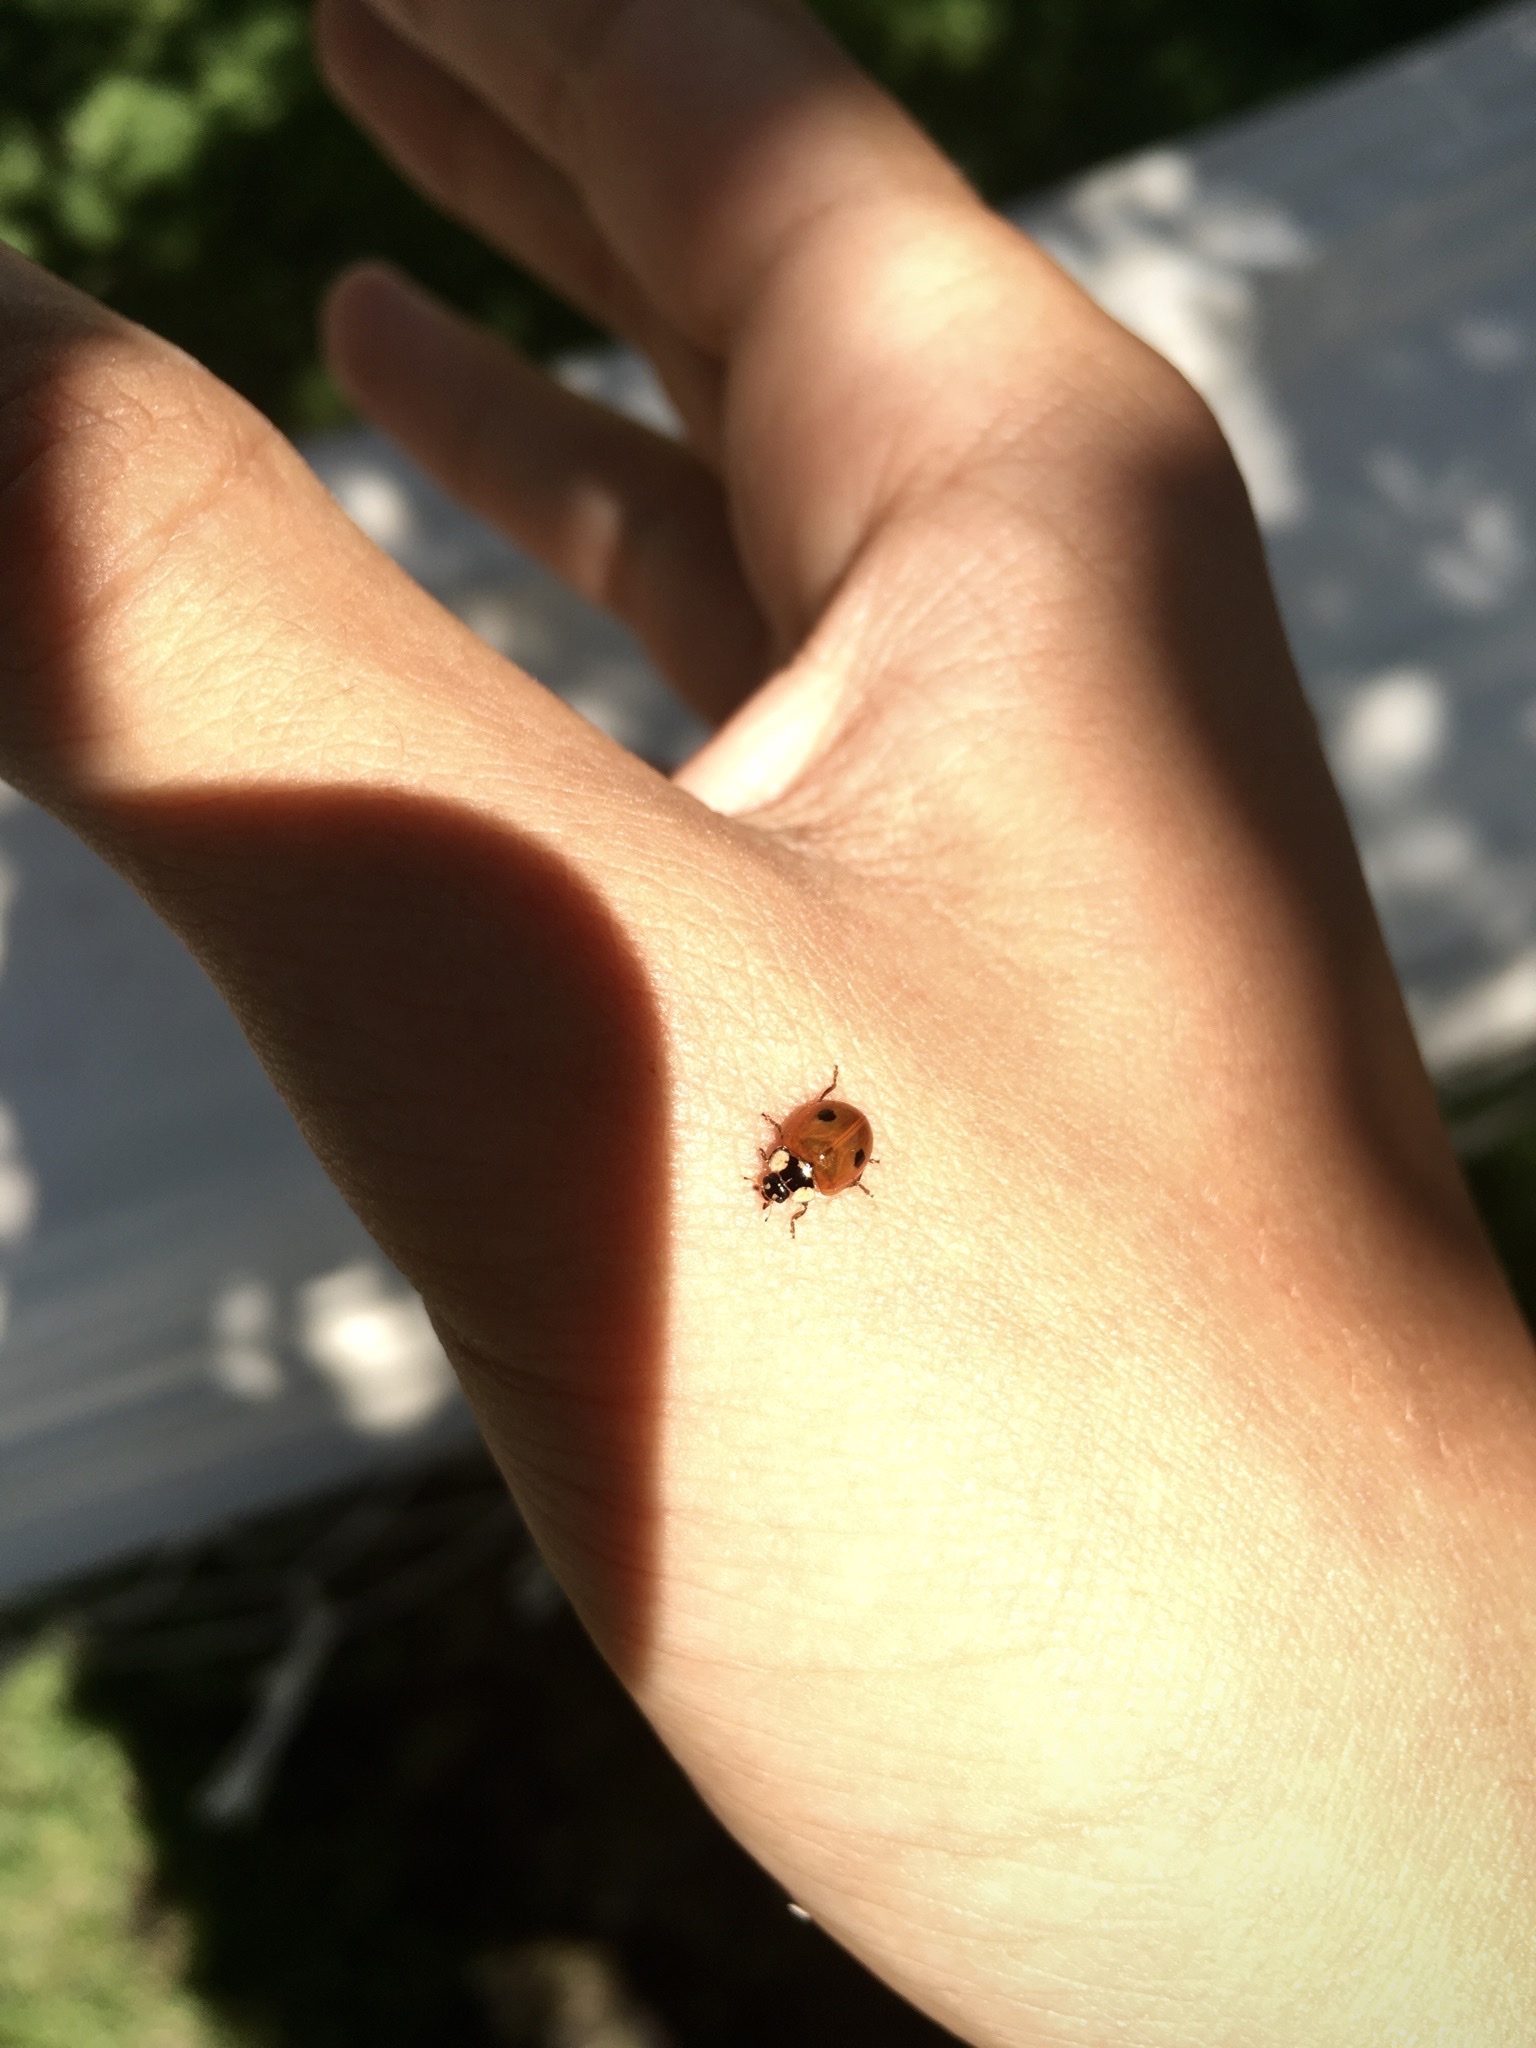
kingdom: Animalia
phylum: Arthropoda
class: Insecta
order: Coleoptera
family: Coccinellidae
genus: Adalia
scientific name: Adalia bipunctata
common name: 2-spot ladybird
